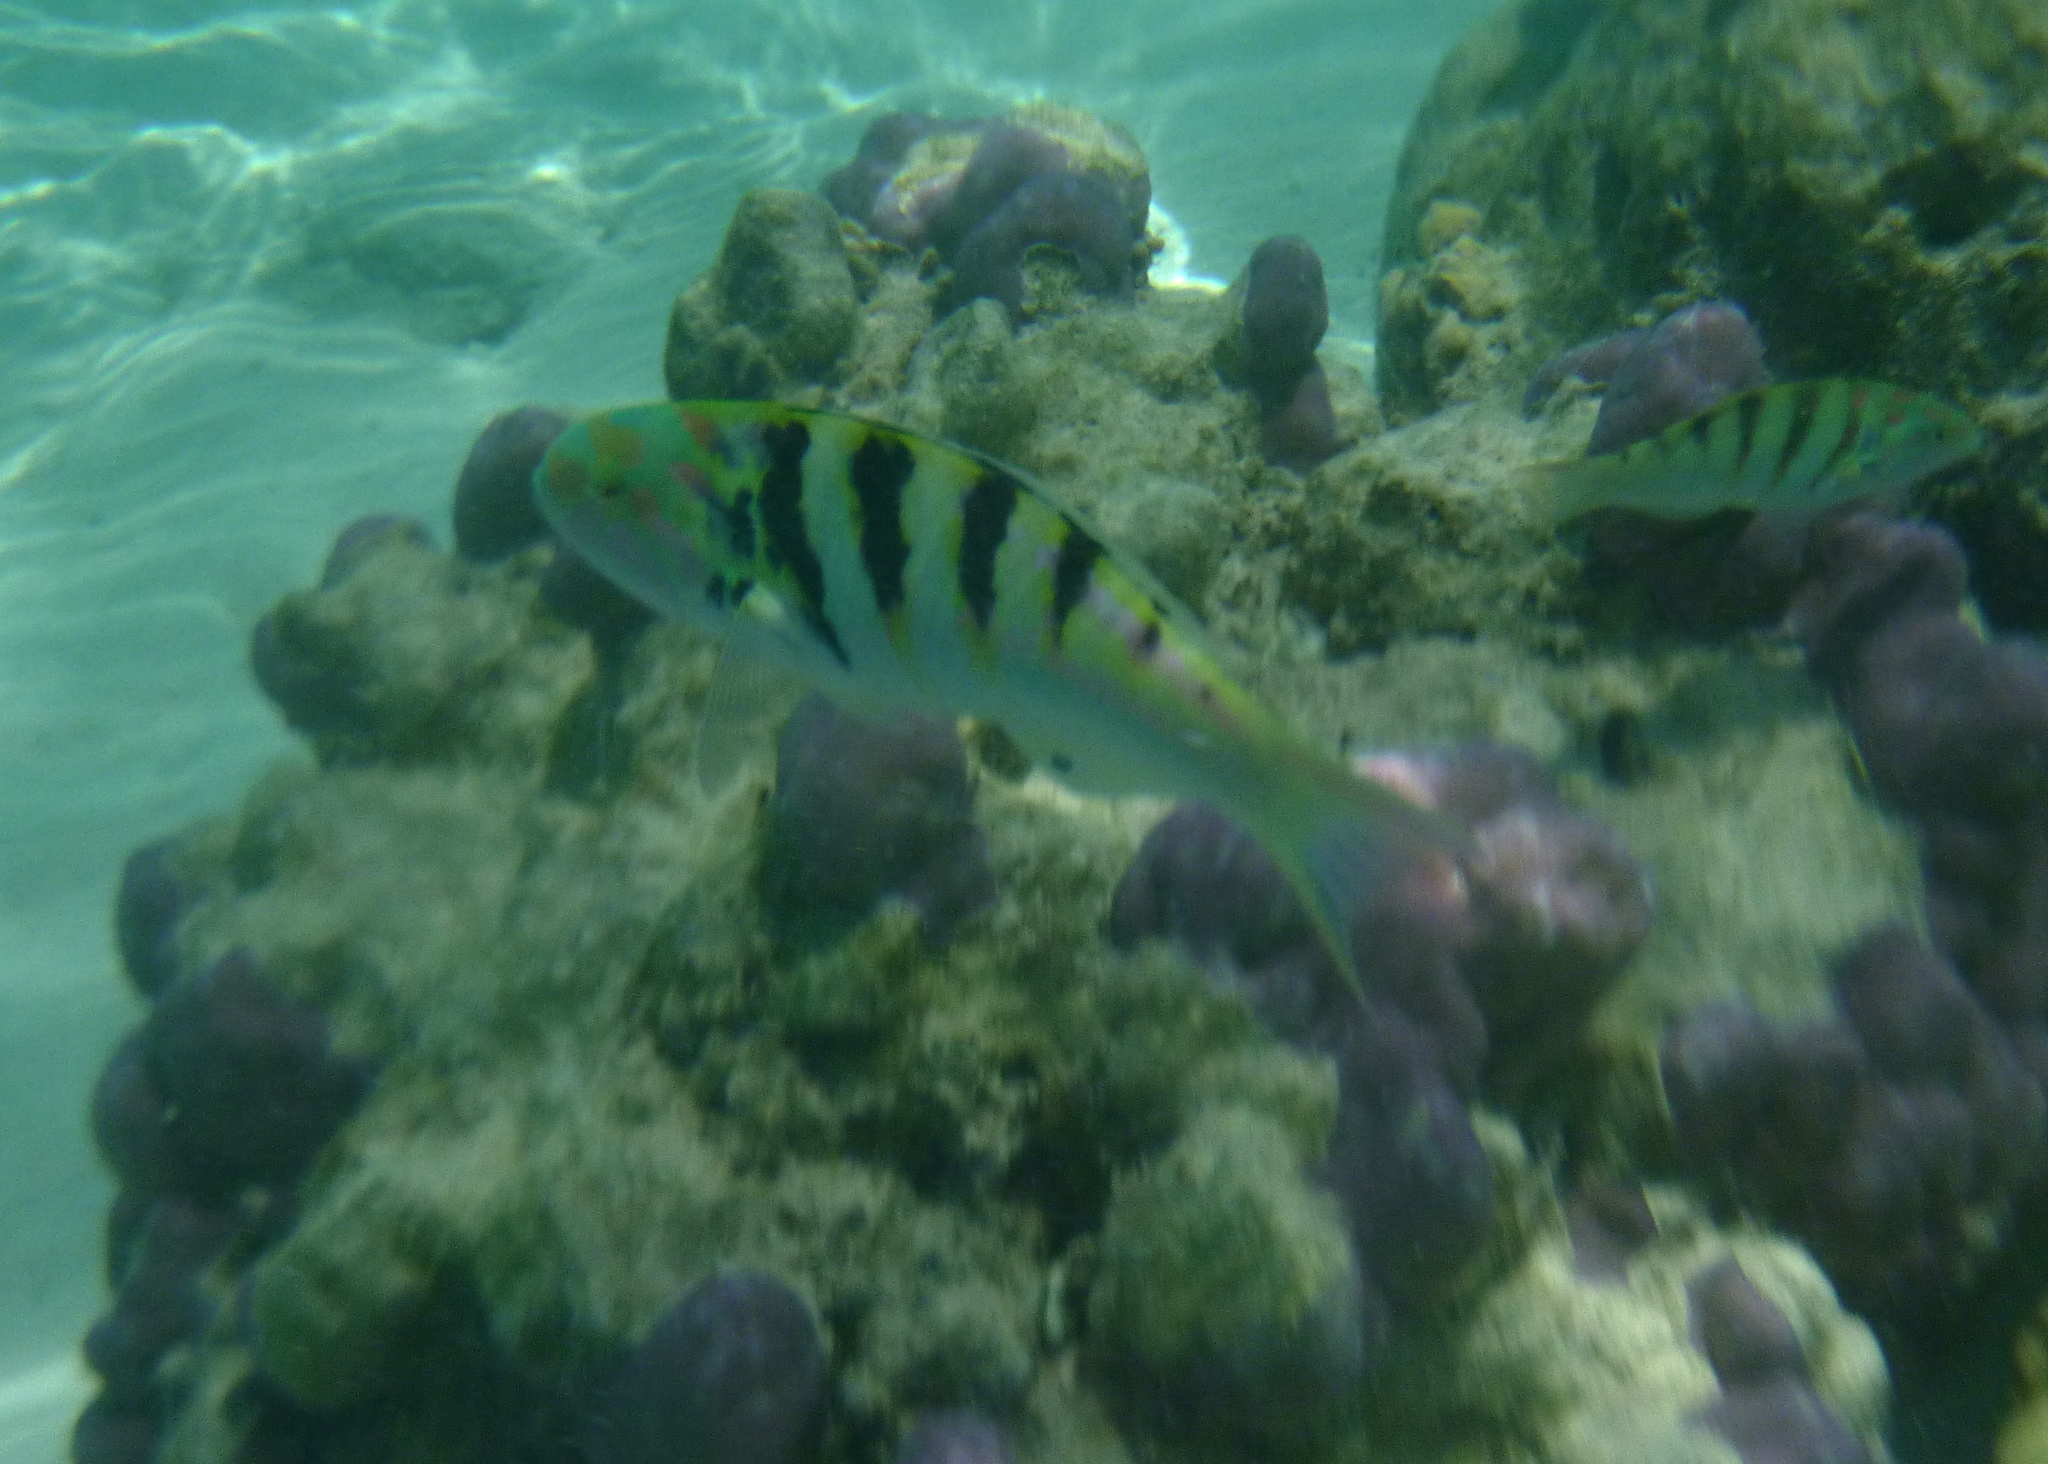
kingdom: Animalia
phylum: Chordata
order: Perciformes
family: Labridae
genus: Thalassoma
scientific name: Thalassoma hardwicke
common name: Sixbar wrasse
